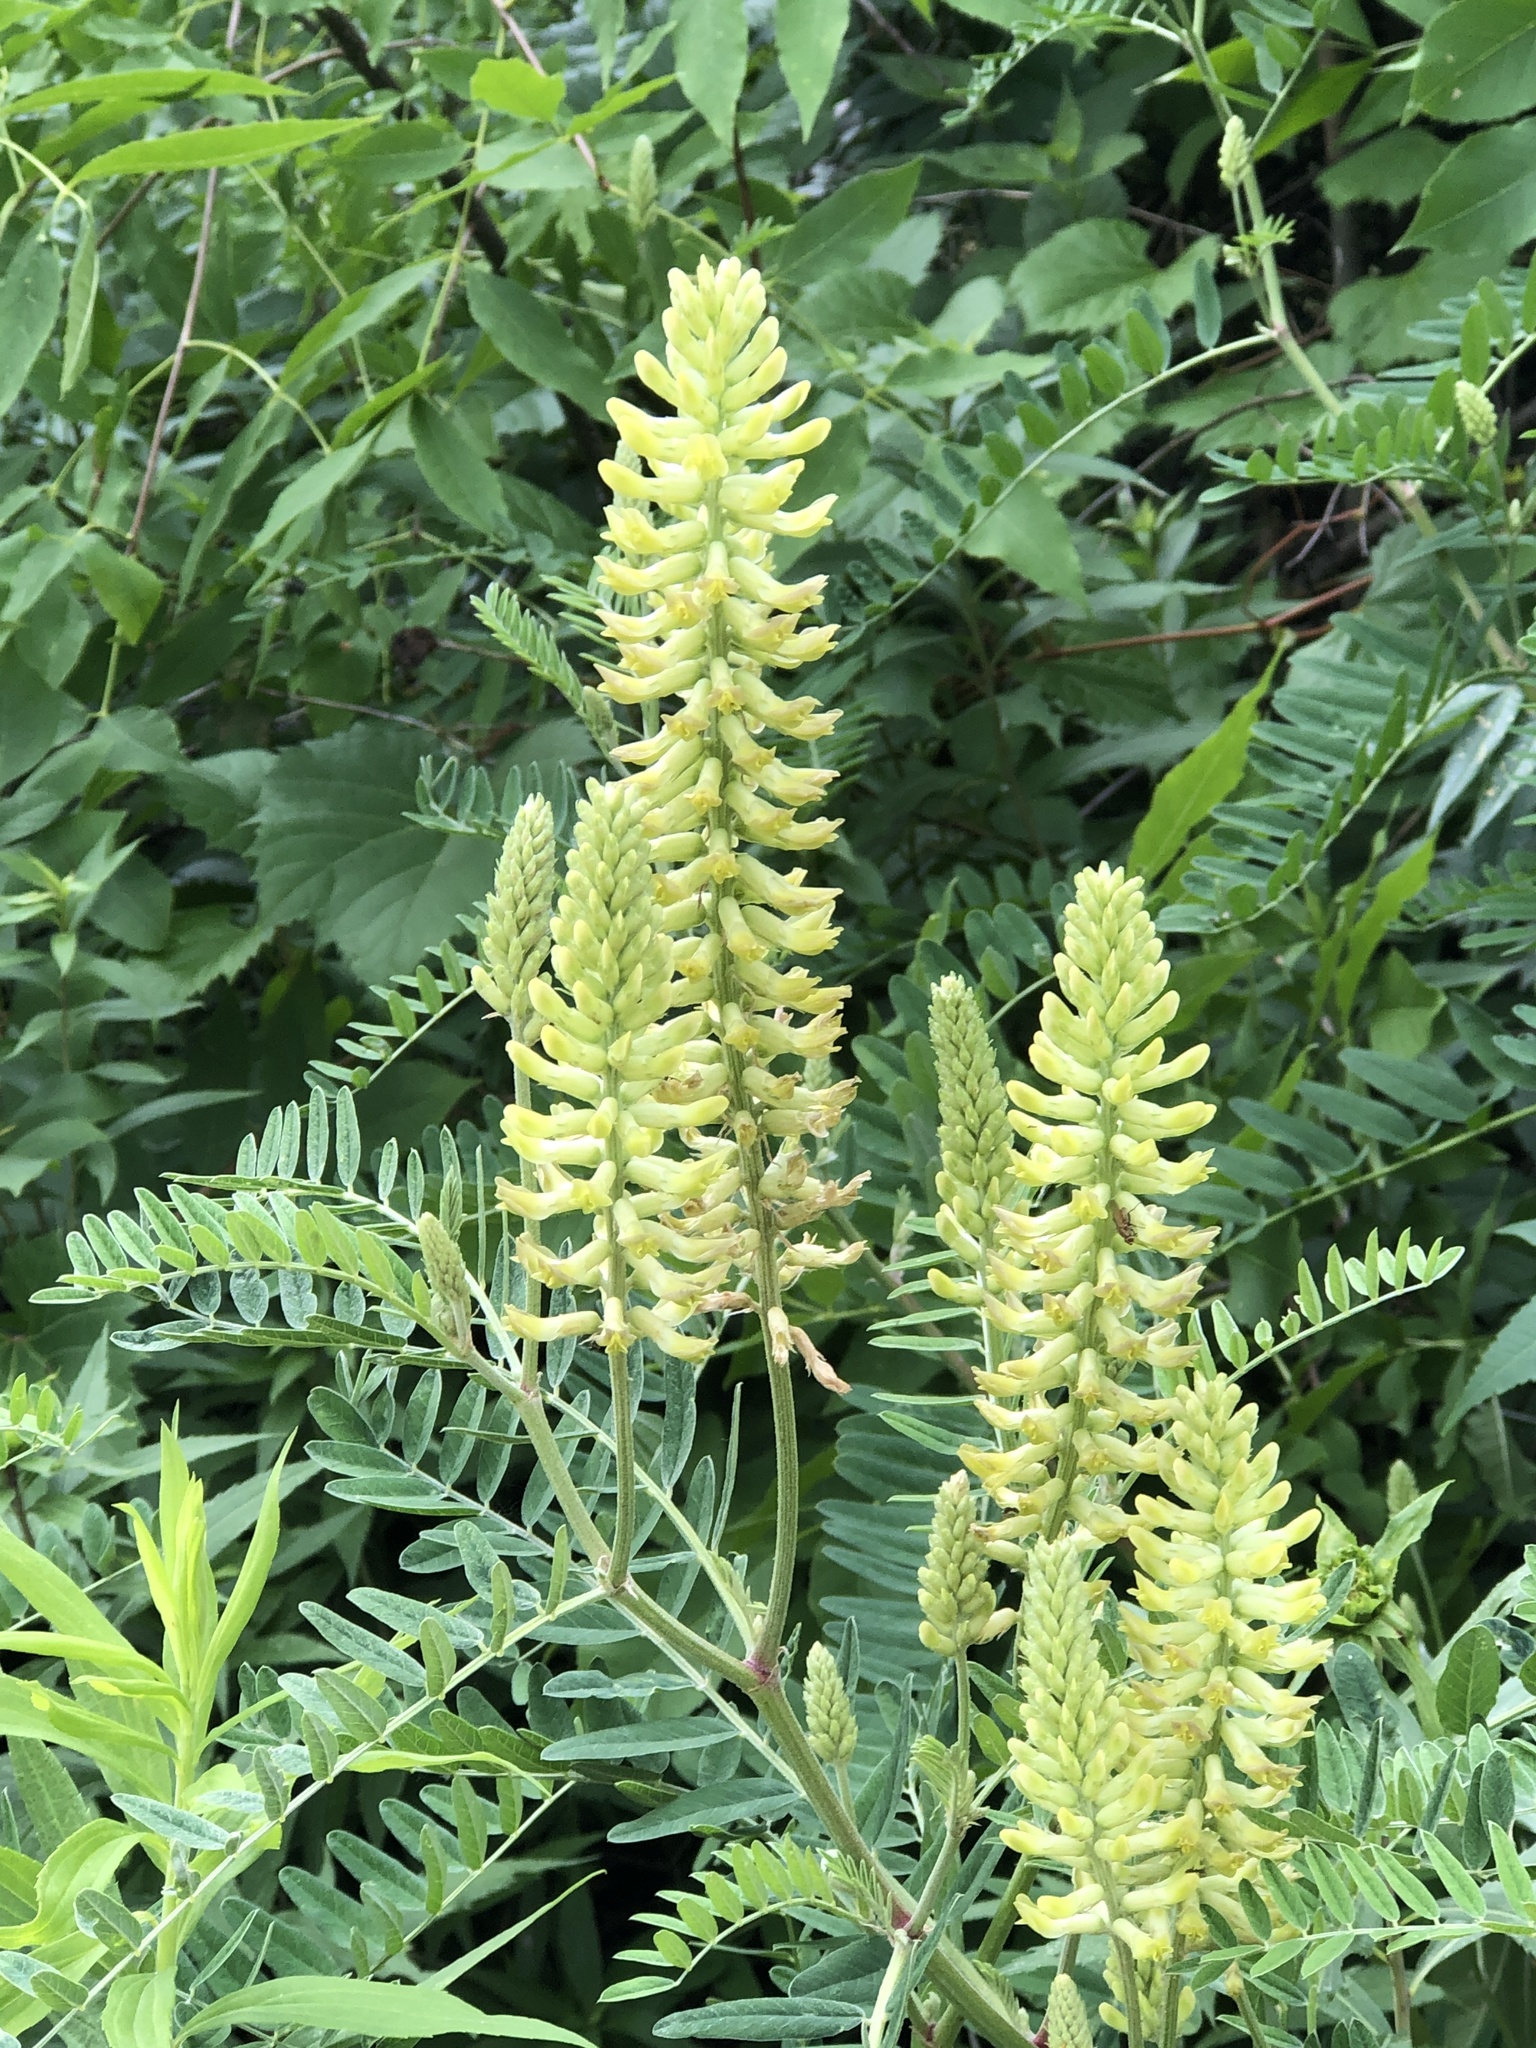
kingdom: Plantae
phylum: Tracheophyta
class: Magnoliopsida
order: Fabales
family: Fabaceae
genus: Astragalus
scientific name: Astragalus canadensis
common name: Canada milk-vetch
